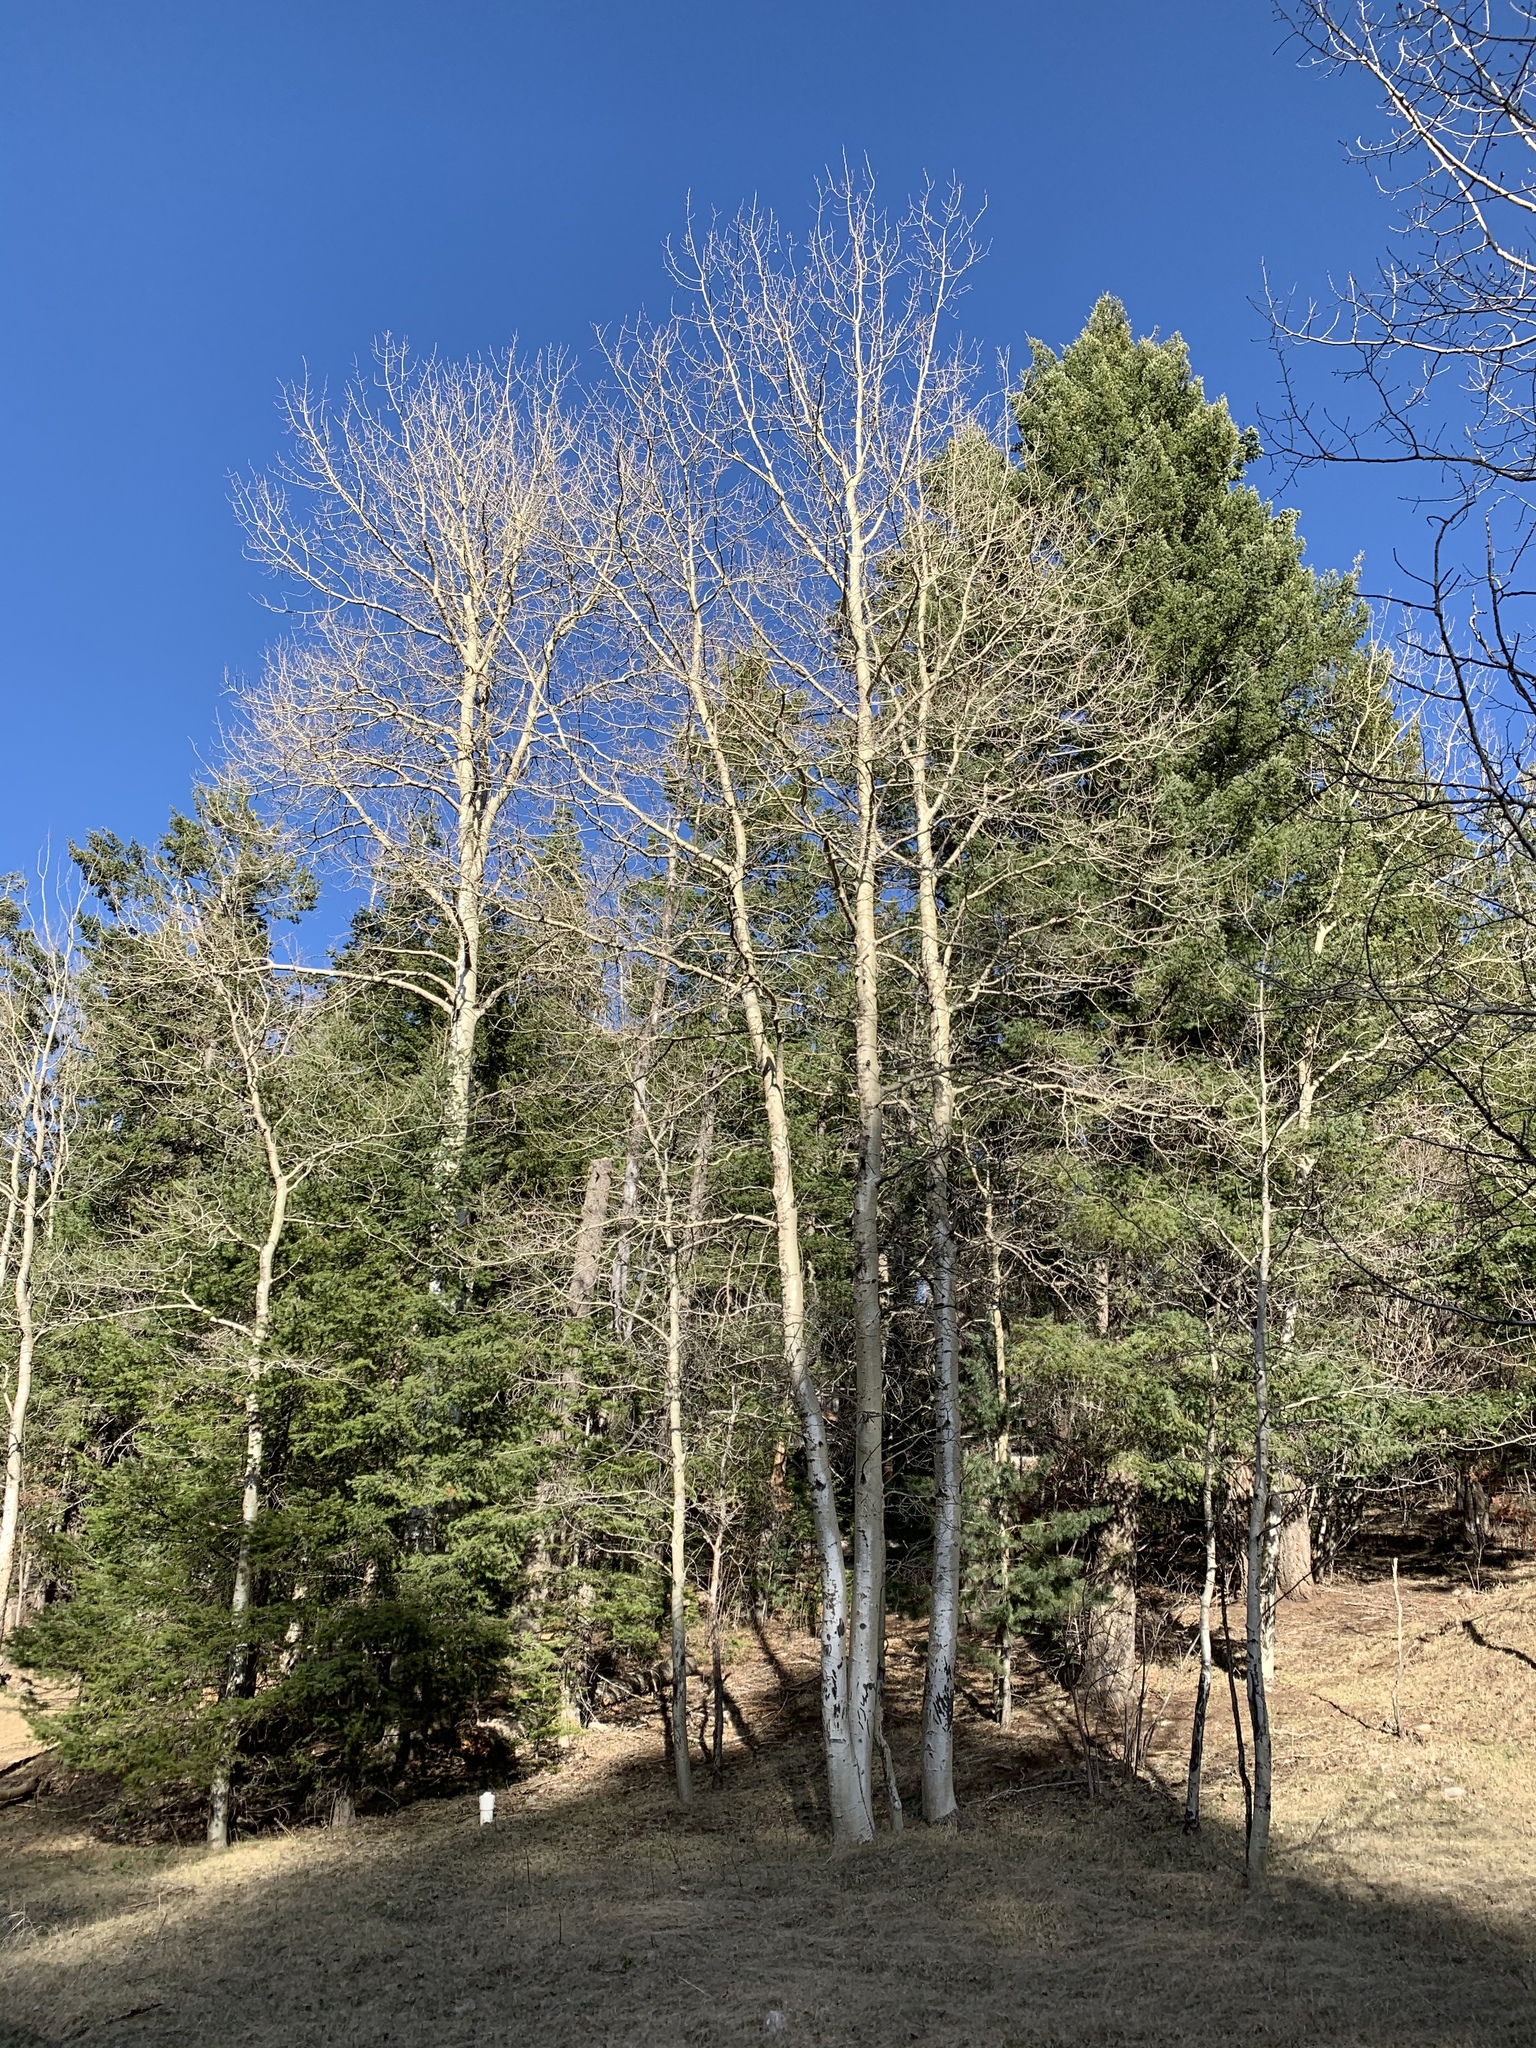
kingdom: Plantae
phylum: Tracheophyta
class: Magnoliopsida
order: Malpighiales
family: Salicaceae
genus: Populus
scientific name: Populus tremuloides
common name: Quaking aspen
